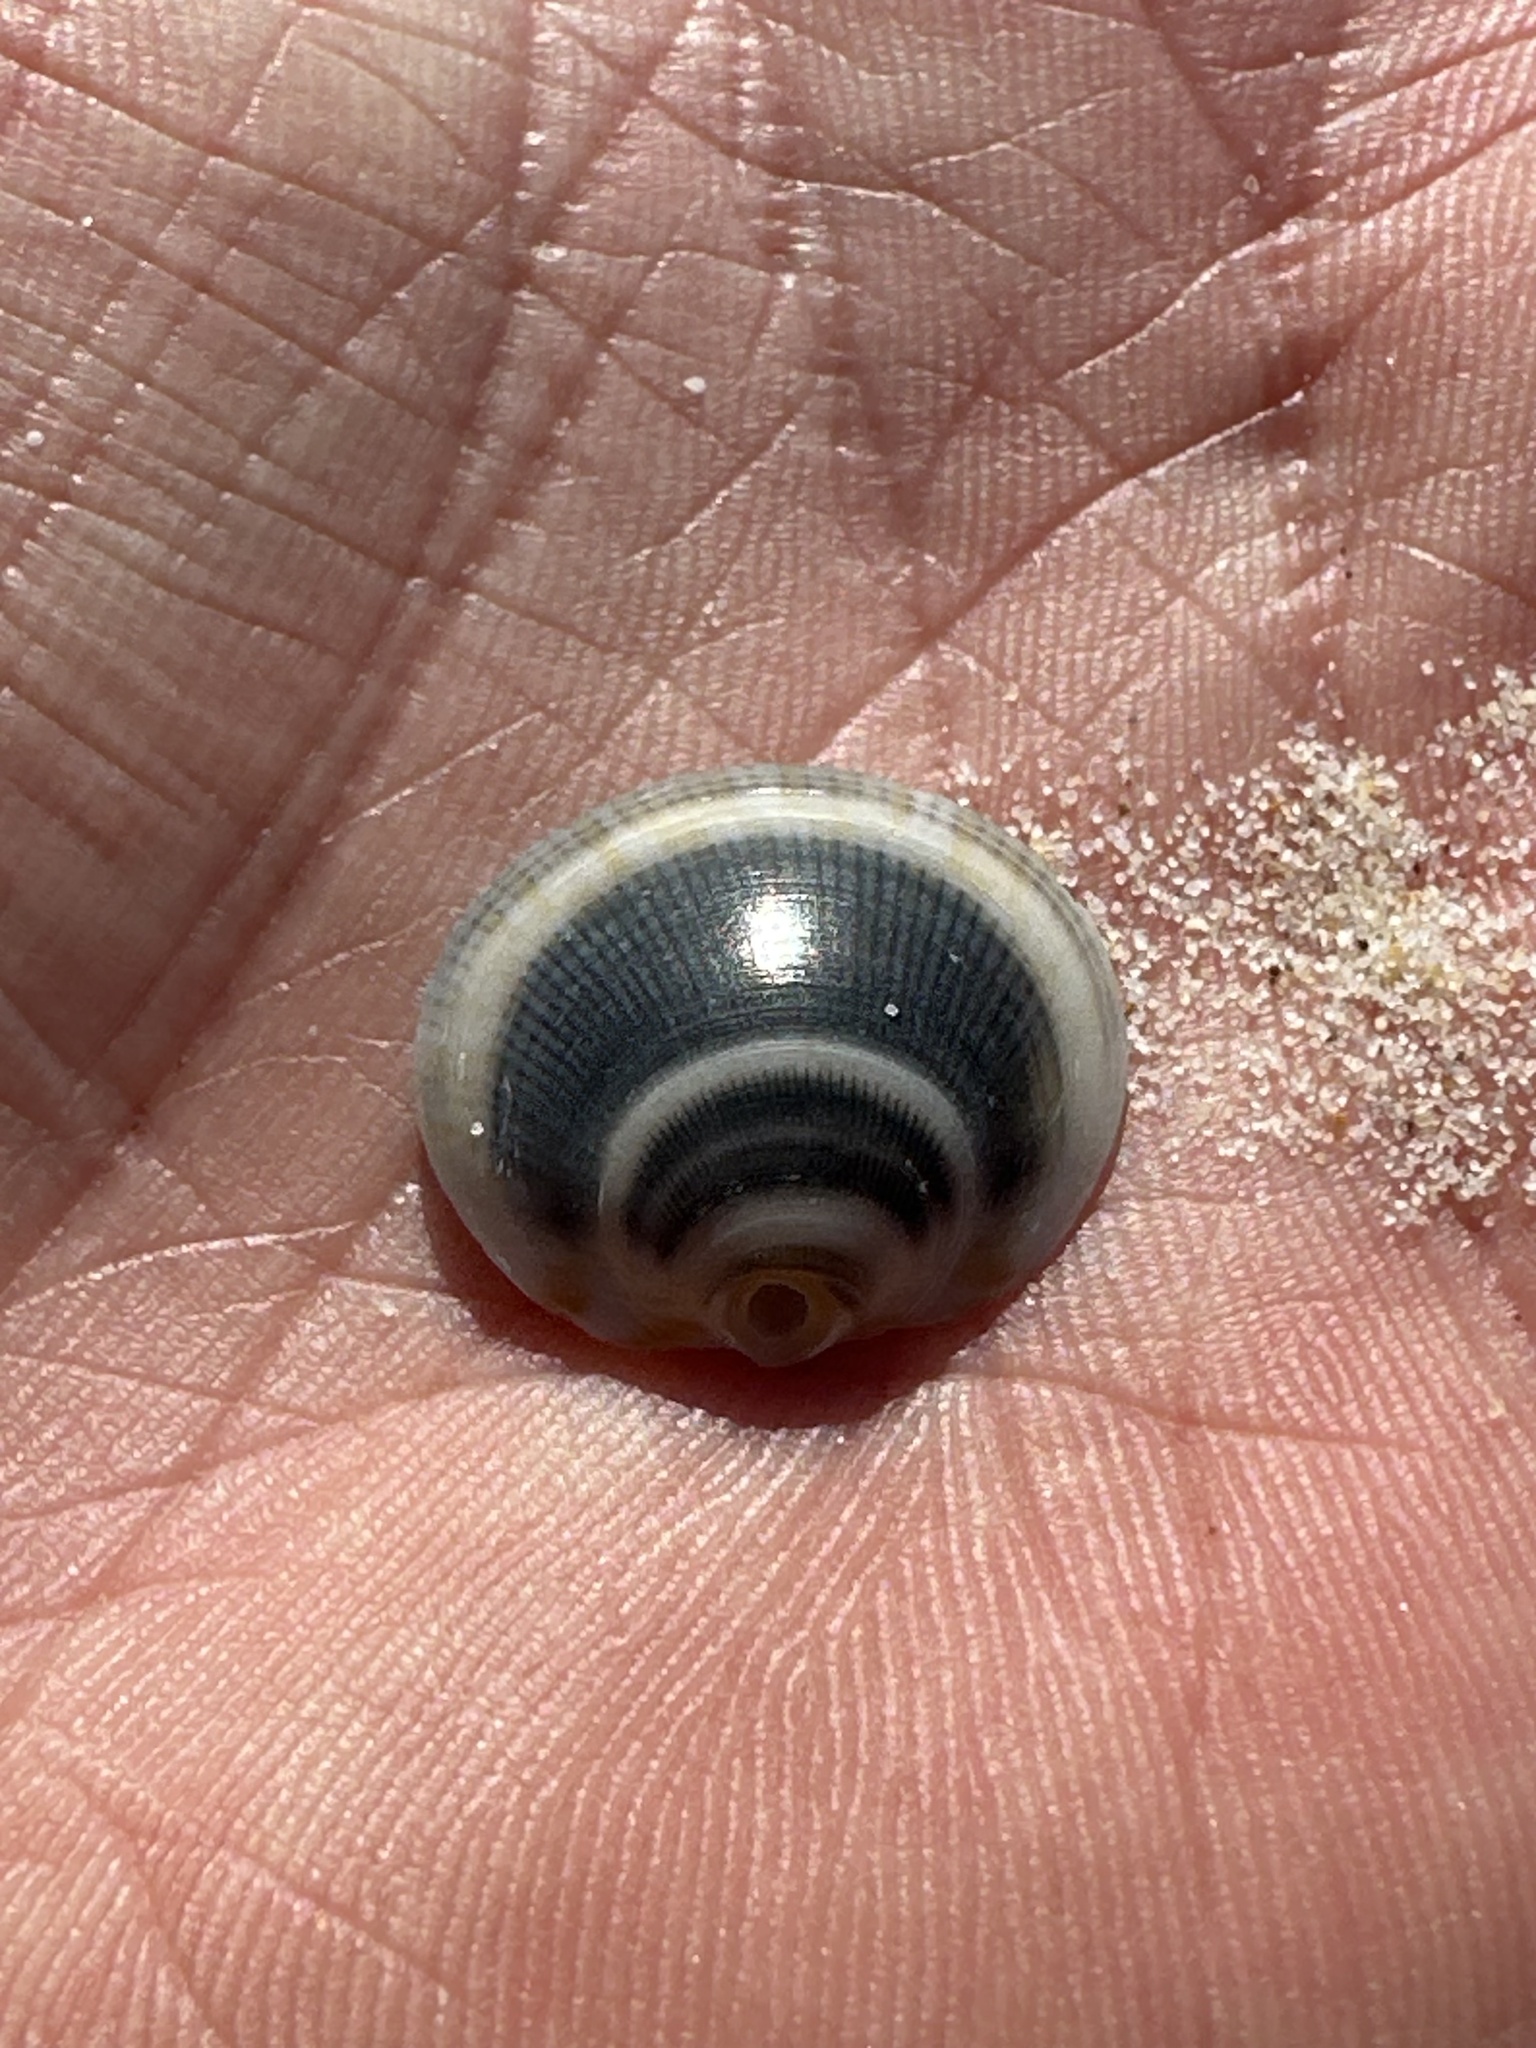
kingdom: Animalia
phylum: Mollusca
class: Bivalvia
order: Arcida
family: Glycymerididae
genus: Glycymeris
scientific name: Glycymeris grayana
